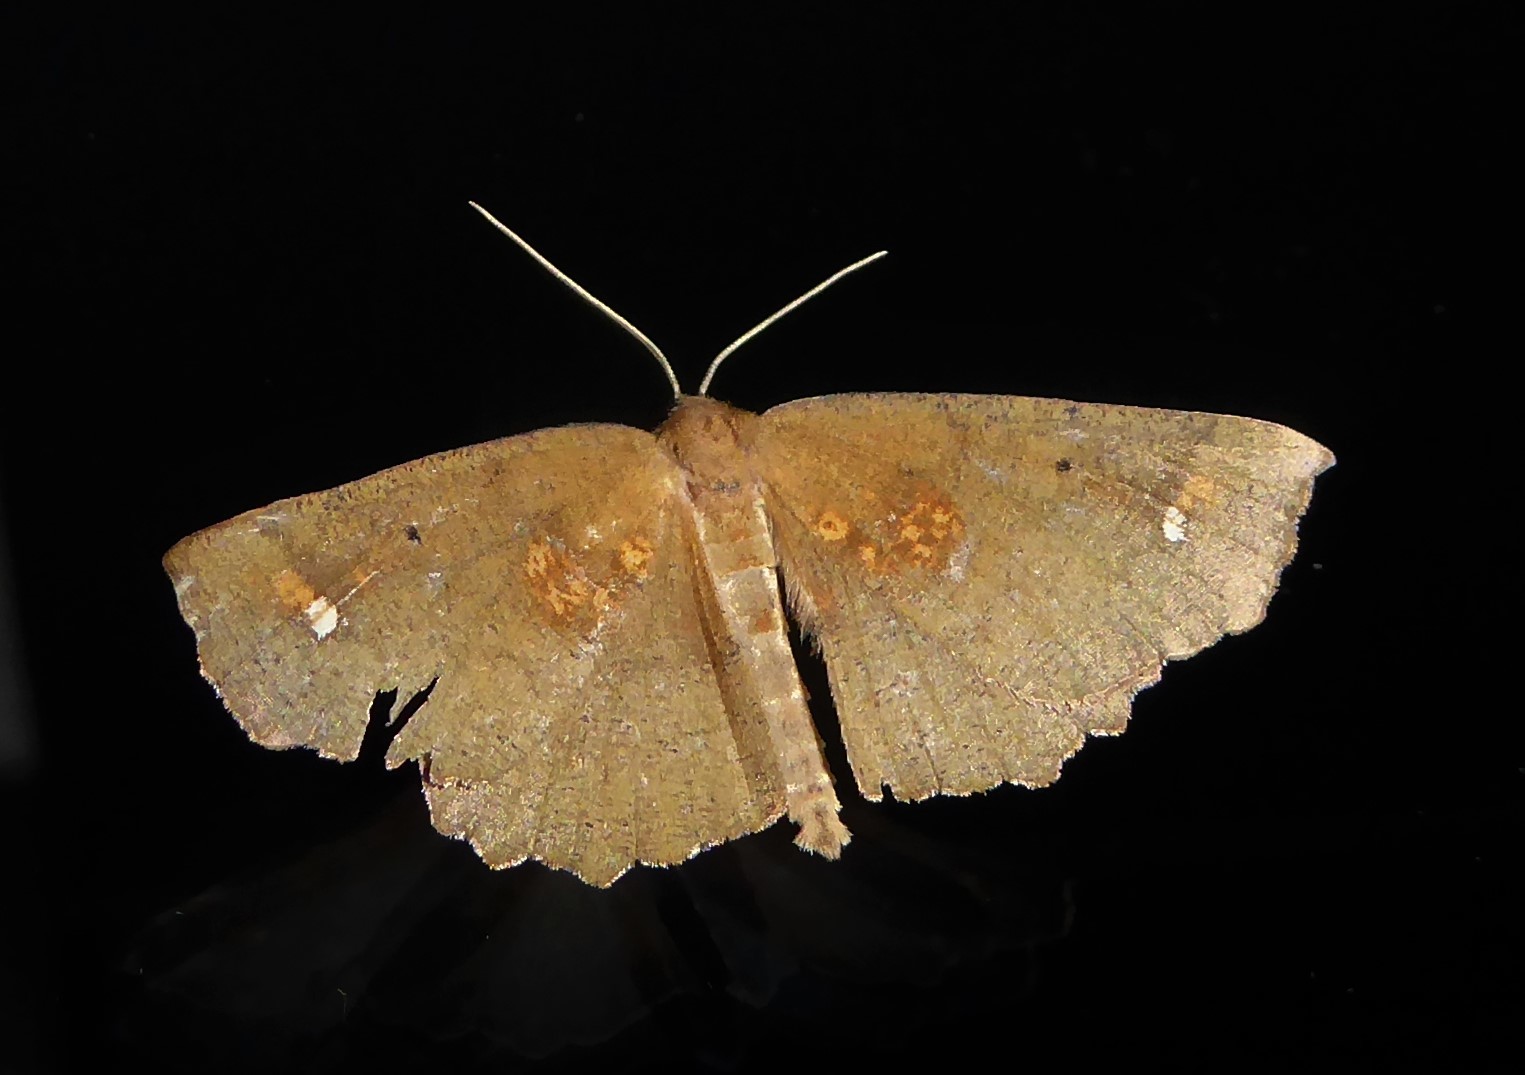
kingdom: Animalia
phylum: Arthropoda
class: Insecta
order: Lepidoptera
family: Geometridae
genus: Xyridacma
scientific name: Xyridacma ustaria
